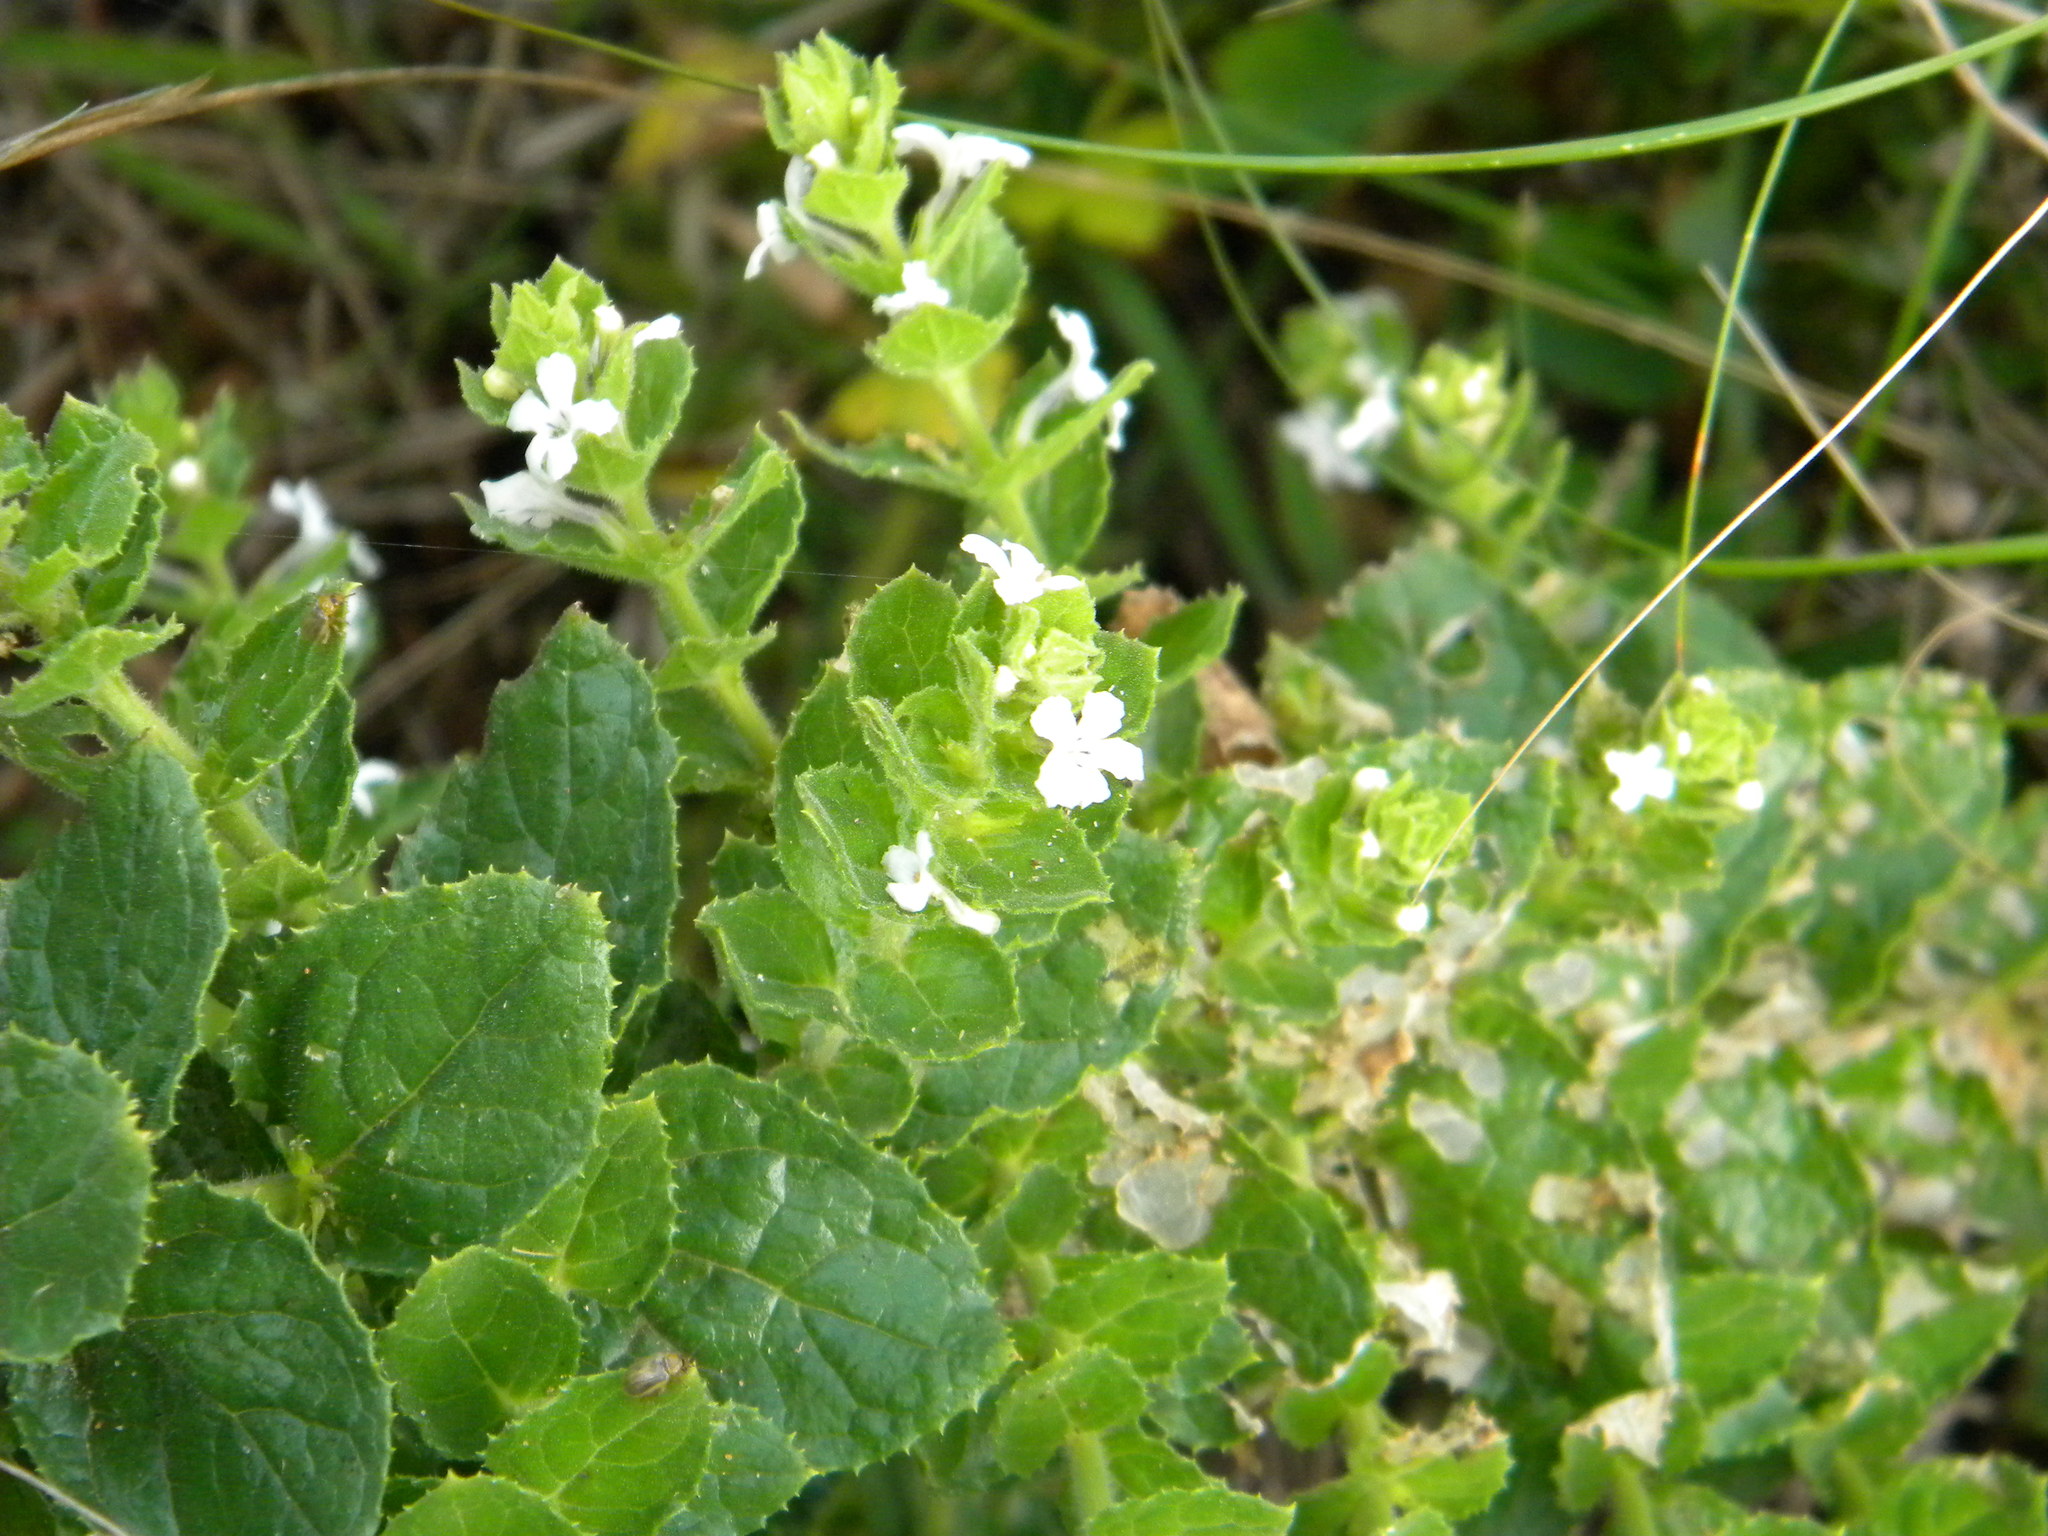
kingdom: Plantae
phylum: Tracheophyta
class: Magnoliopsida
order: Lamiales
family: Scrophulariaceae
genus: Oftia
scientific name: Oftia africana
